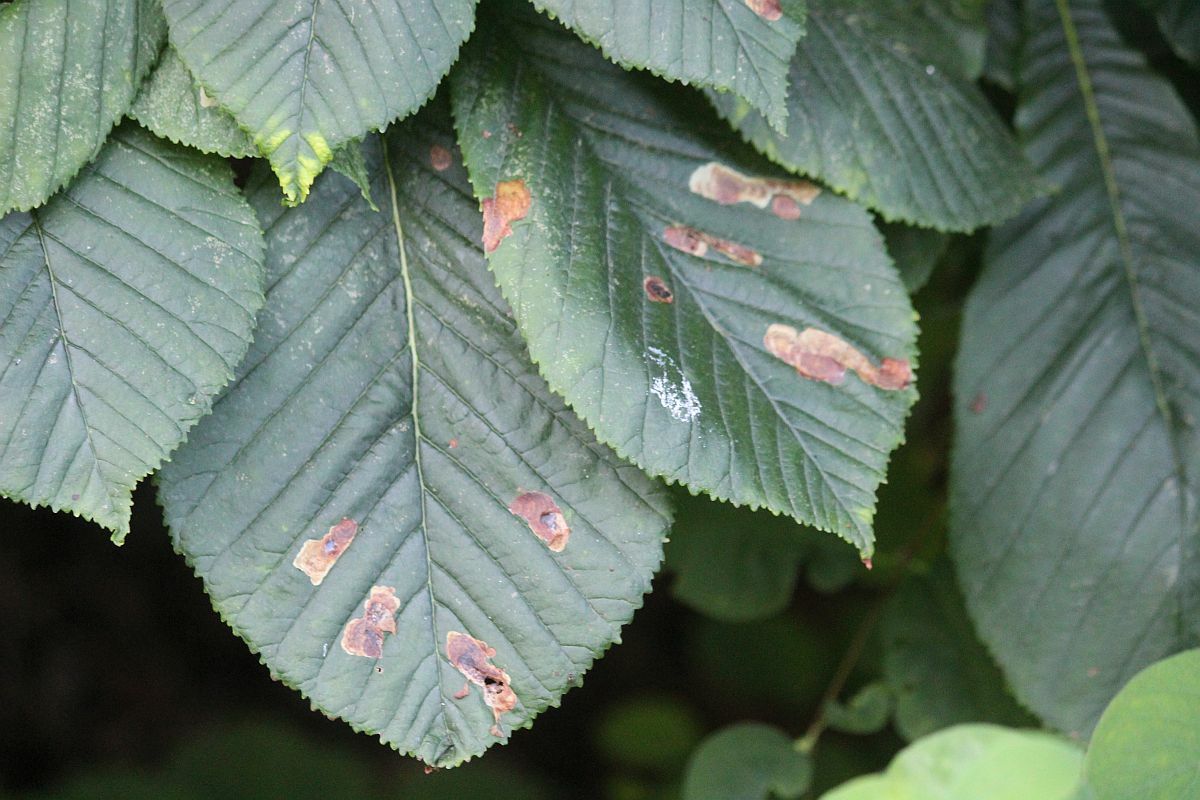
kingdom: Animalia
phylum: Arthropoda
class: Insecta
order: Lepidoptera
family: Gracillariidae
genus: Cameraria
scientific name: Cameraria ohridella
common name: Horse-chestnut leaf-miner
